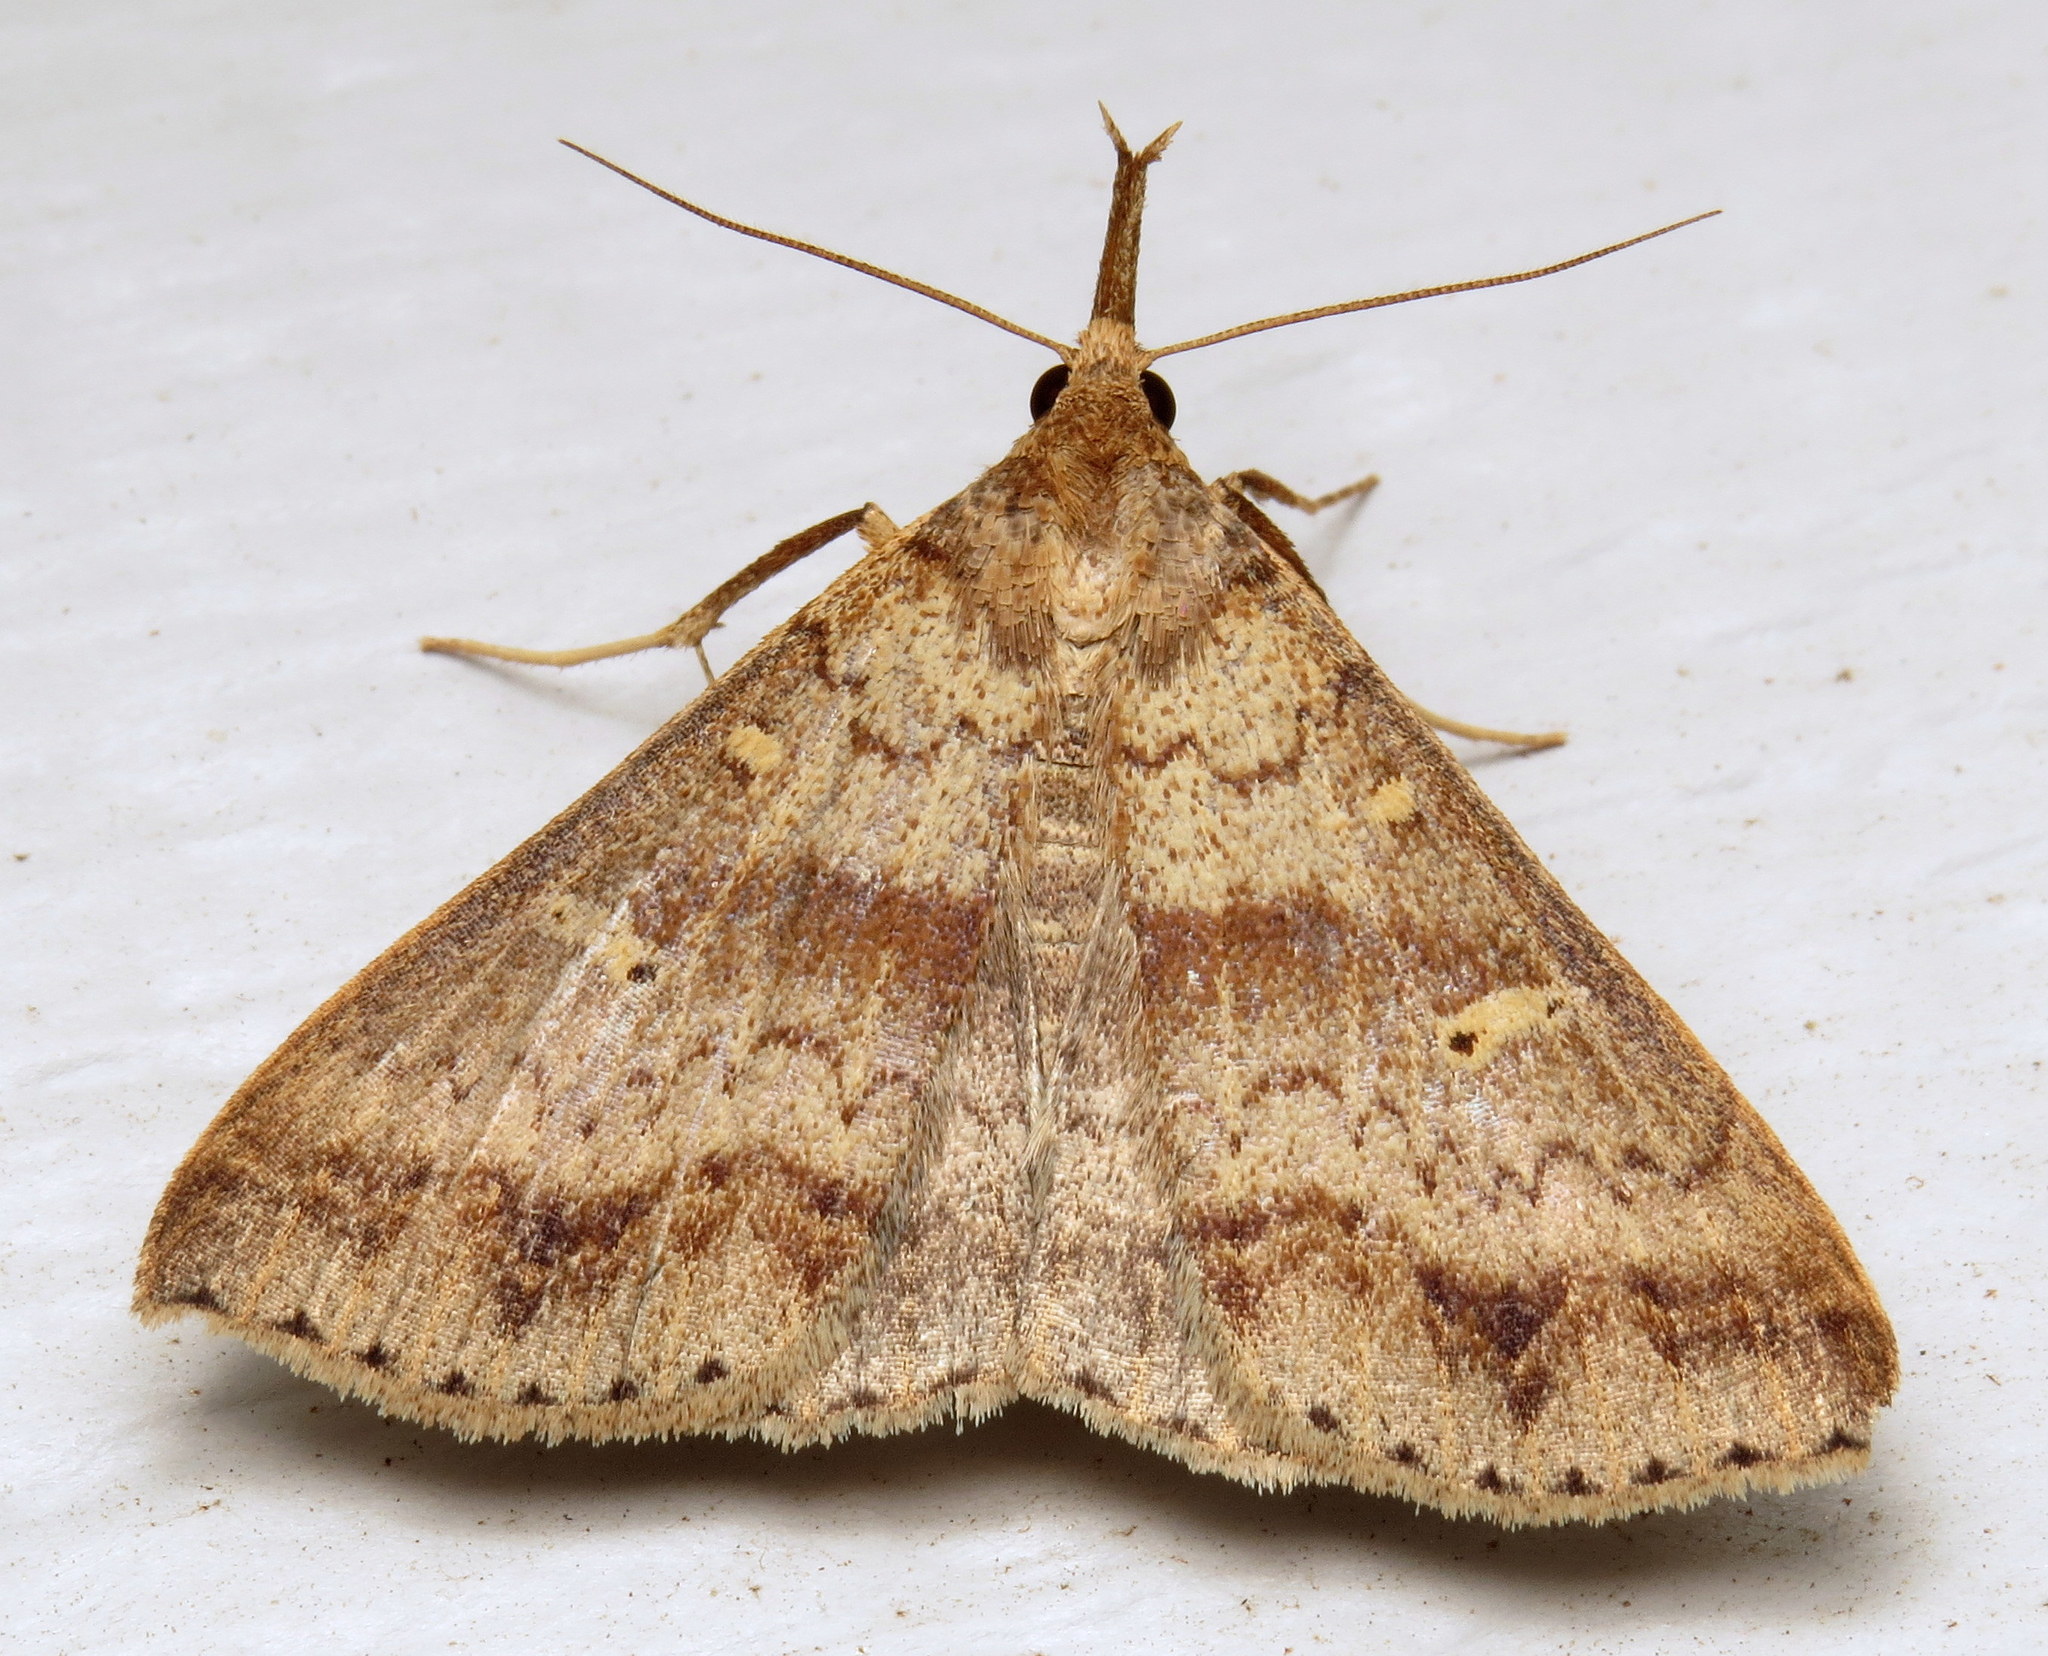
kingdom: Animalia
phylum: Arthropoda
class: Insecta
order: Lepidoptera
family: Erebidae
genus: Renia
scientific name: Renia discoloralis
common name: Discolored renia moth
